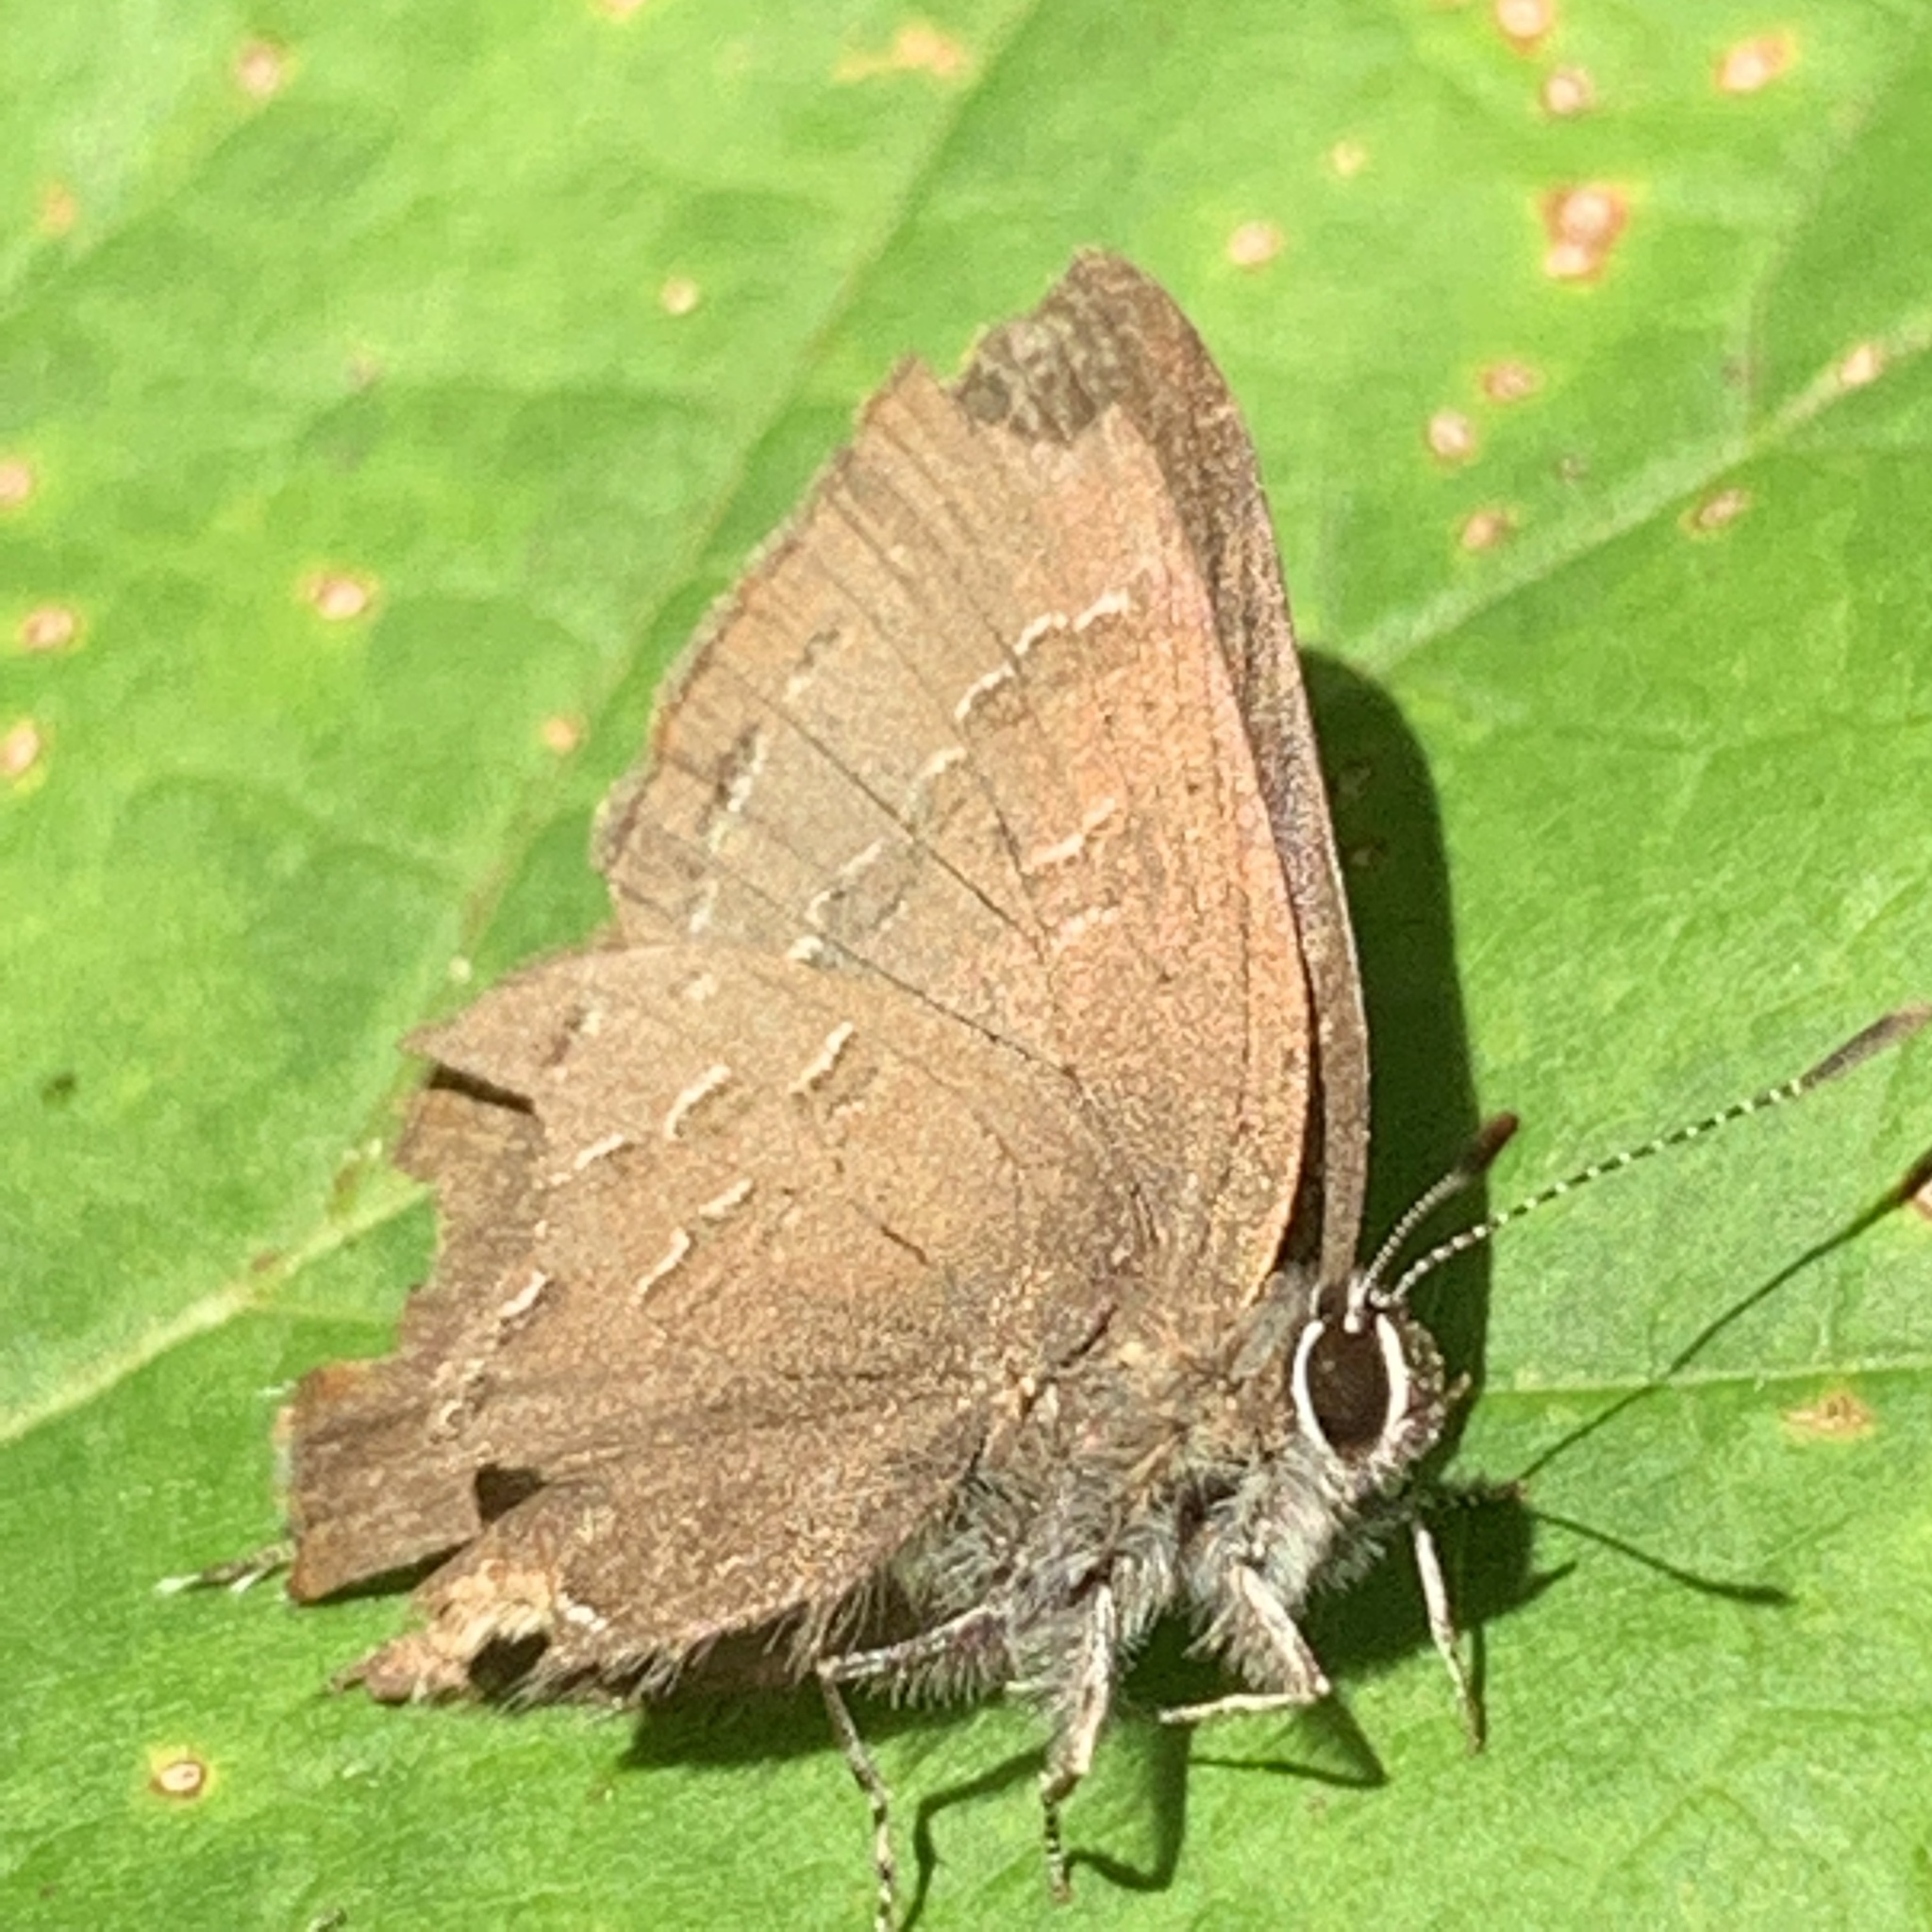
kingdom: Animalia
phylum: Arthropoda
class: Insecta
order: Lepidoptera
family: Lycaenidae
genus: Satyrium
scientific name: Satyrium calanus
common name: Banded hairstreak
